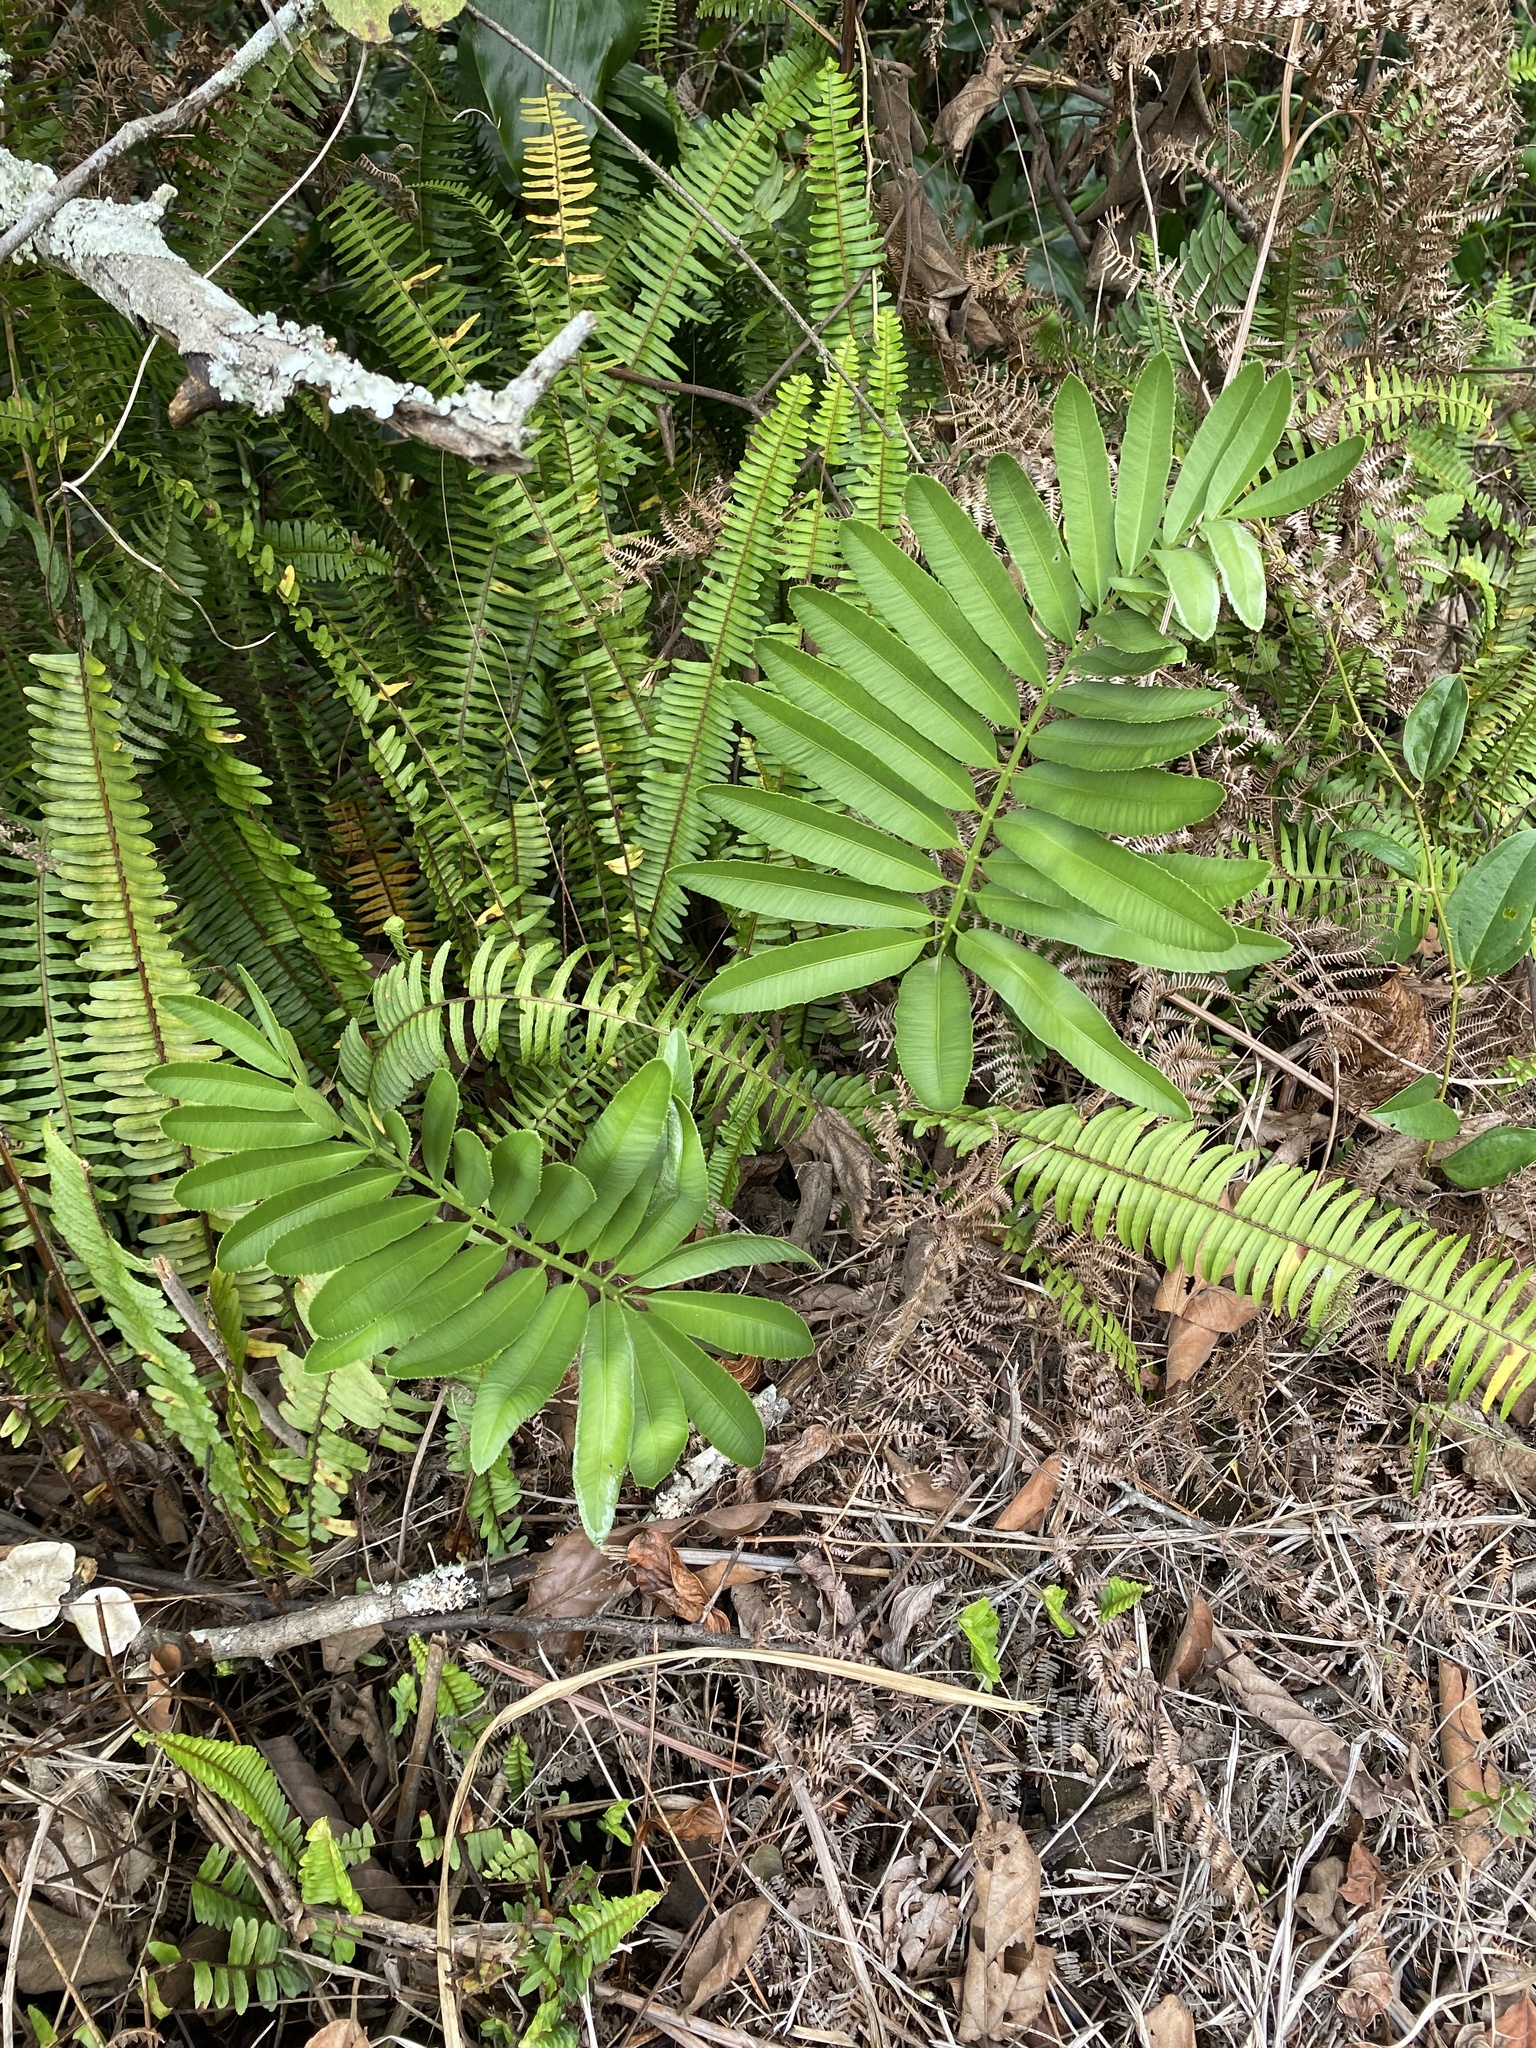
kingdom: Plantae
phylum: Tracheophyta
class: Cycadopsida
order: Cycadales
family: Zamiaceae
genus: Stangeria
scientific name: Stangeria eriopus
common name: Natal grass cycad
